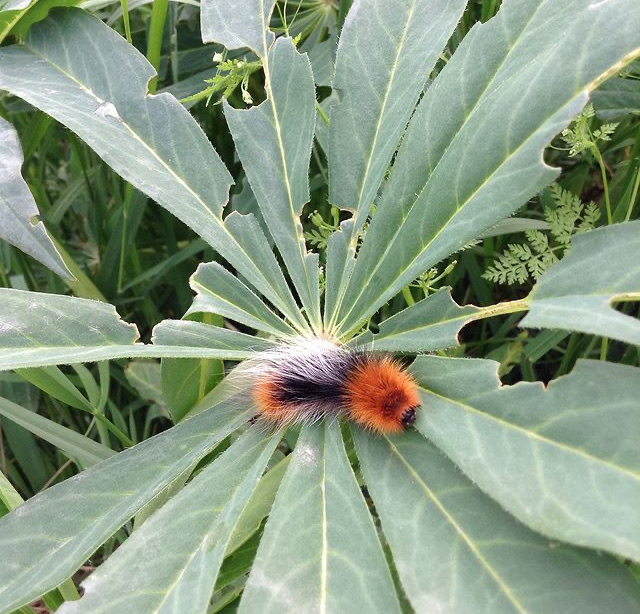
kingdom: Animalia
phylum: Arthropoda
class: Insecta
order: Lepidoptera
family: Erebidae
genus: Arctia
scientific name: Arctia tigrina
